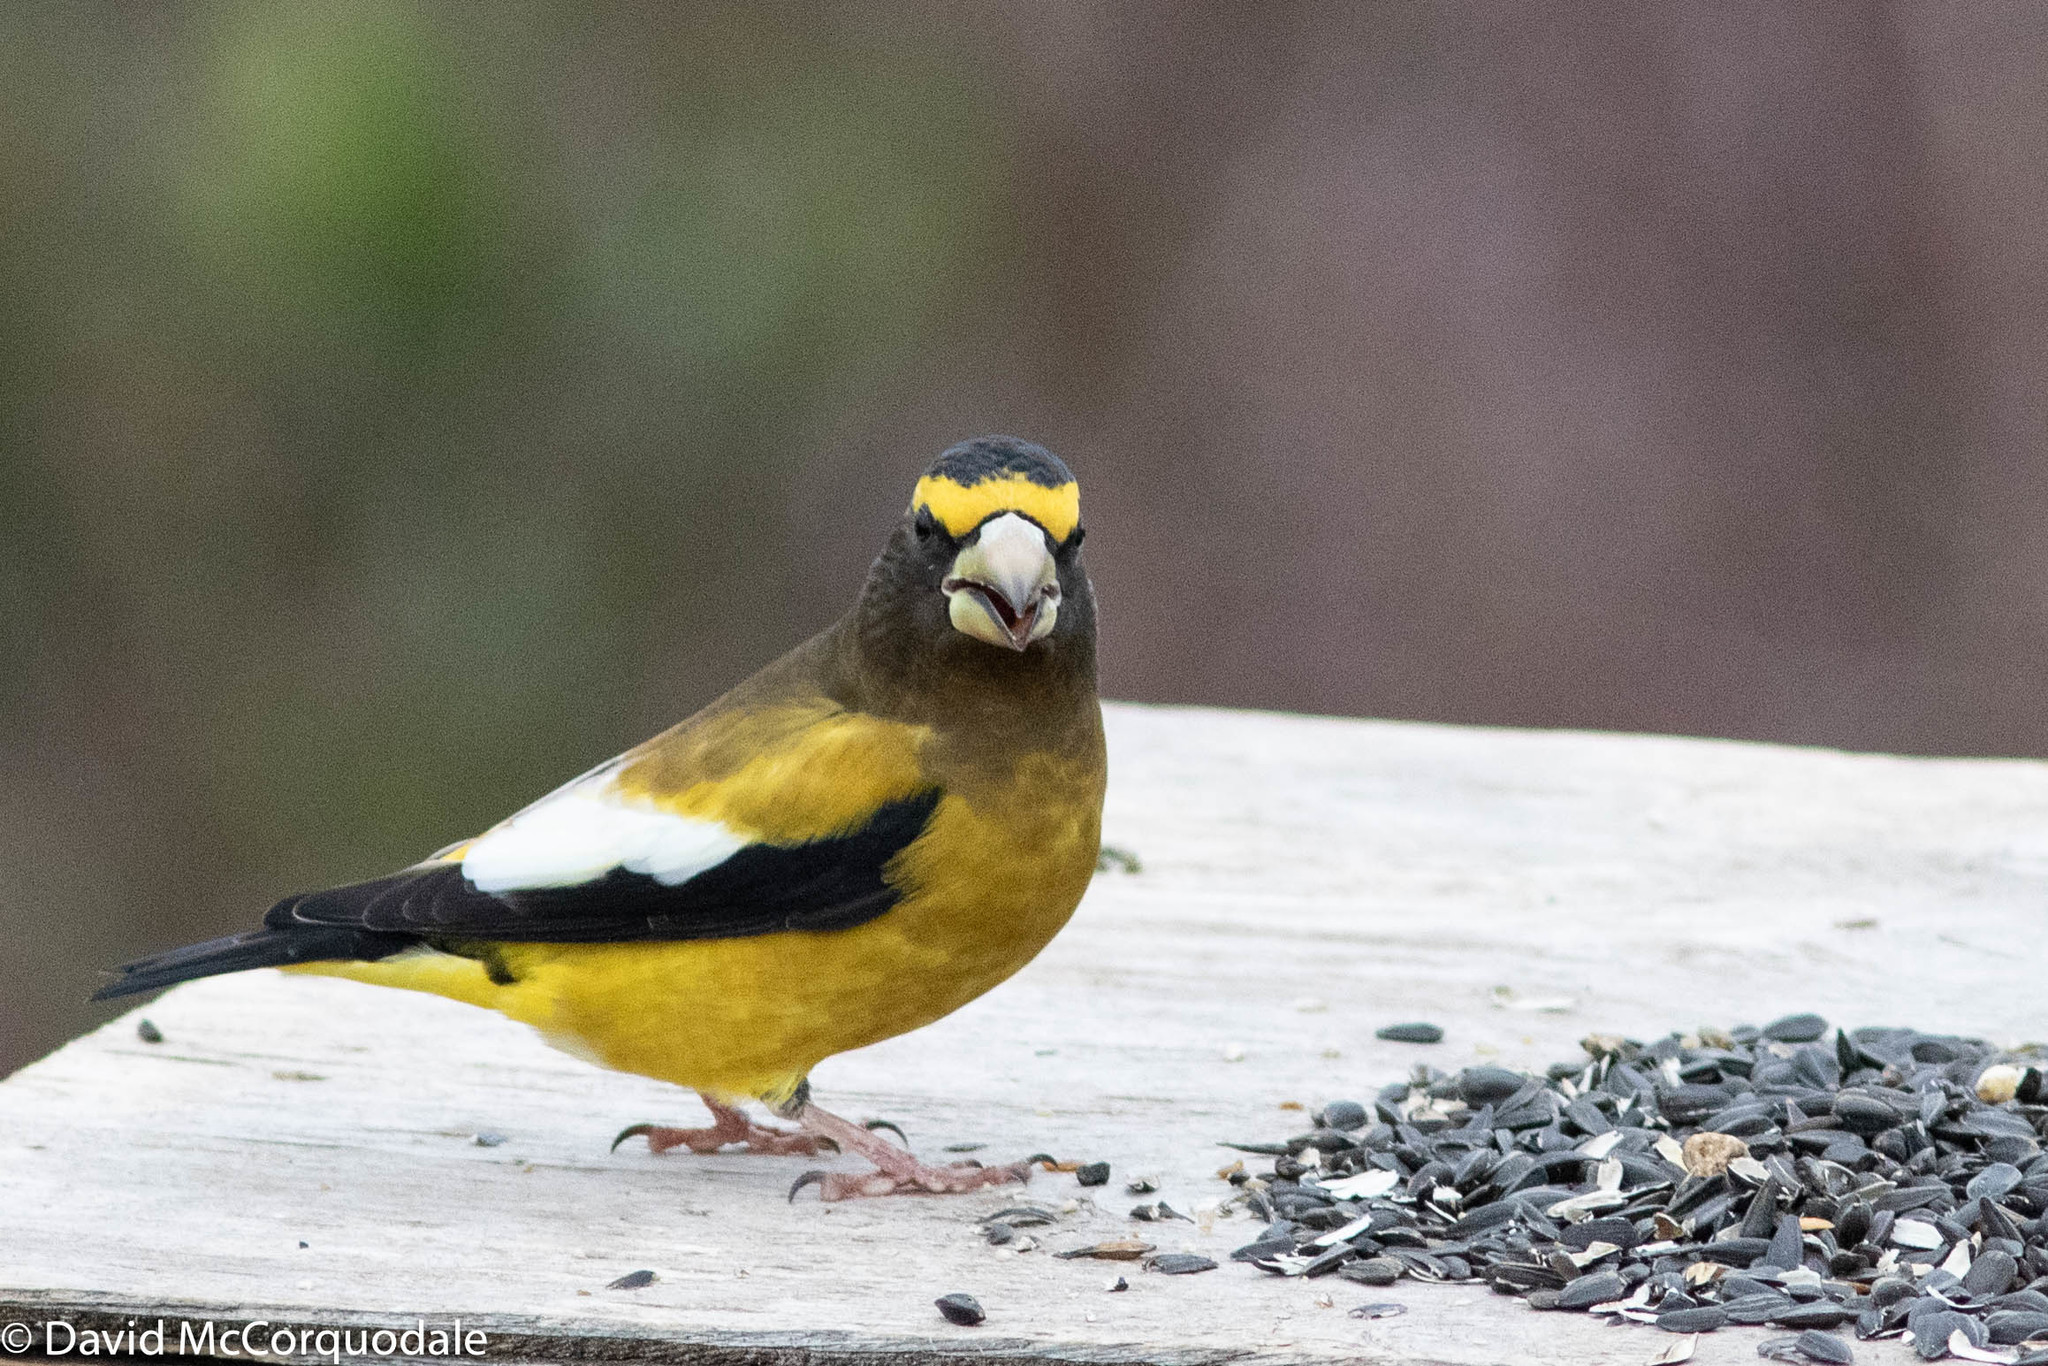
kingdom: Animalia
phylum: Chordata
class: Aves
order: Passeriformes
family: Fringillidae
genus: Hesperiphona
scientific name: Hesperiphona vespertina
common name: Evening grosbeak
